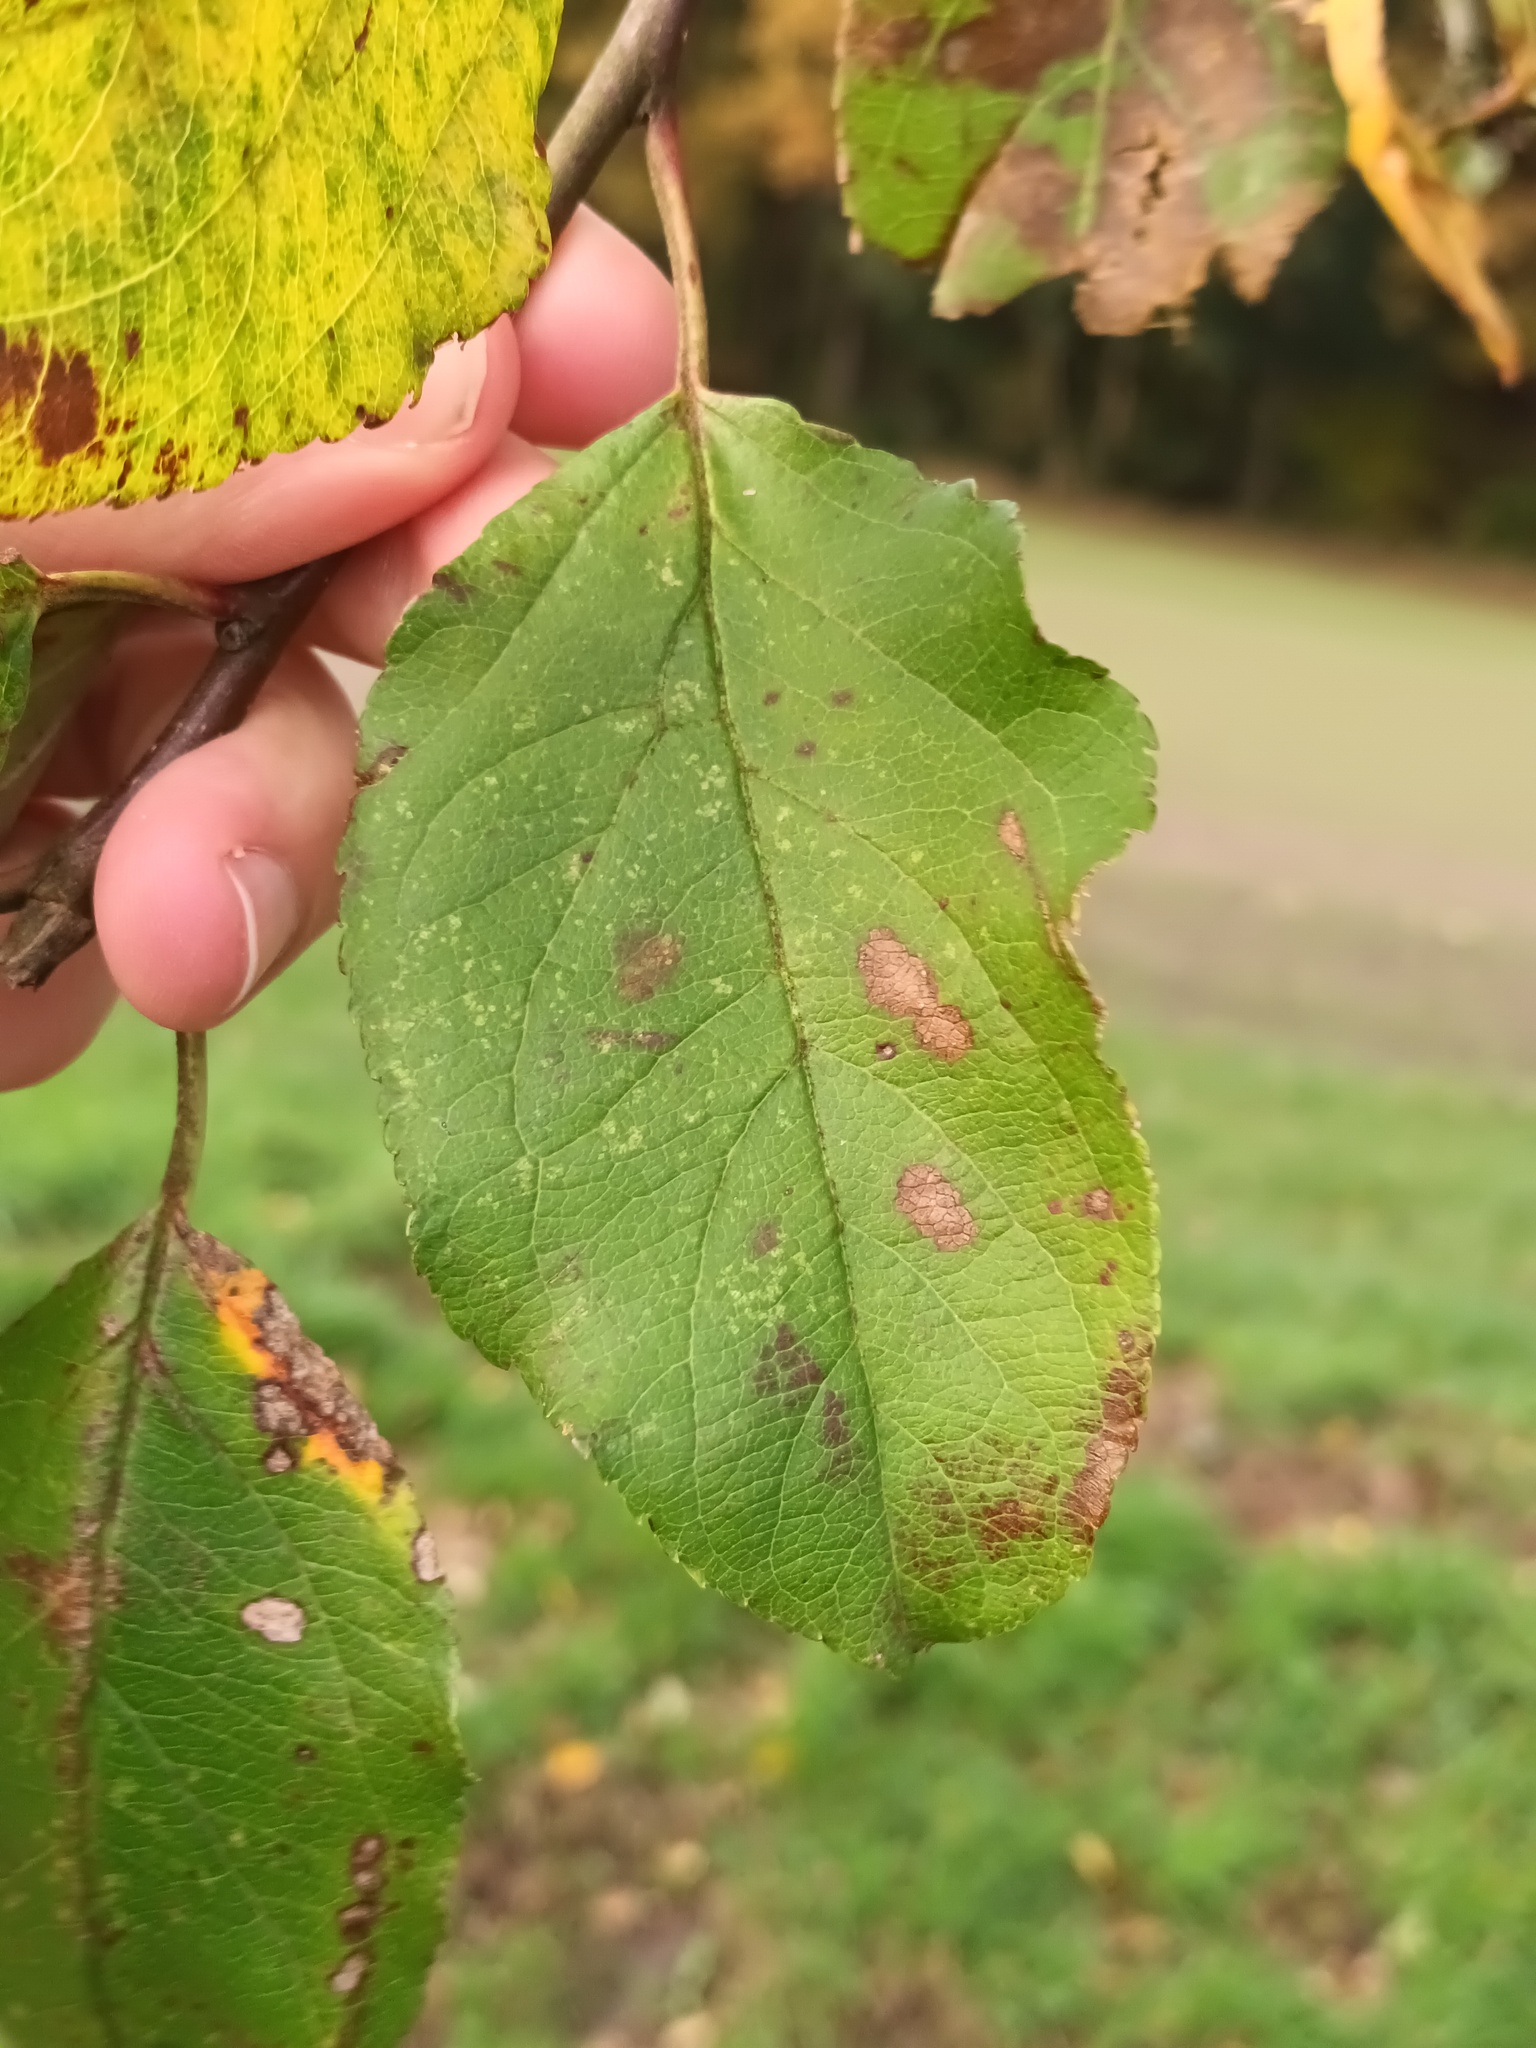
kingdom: Plantae
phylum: Tracheophyta
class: Magnoliopsida
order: Rosales
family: Rosaceae
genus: Malus
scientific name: Malus domestica
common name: Apple
